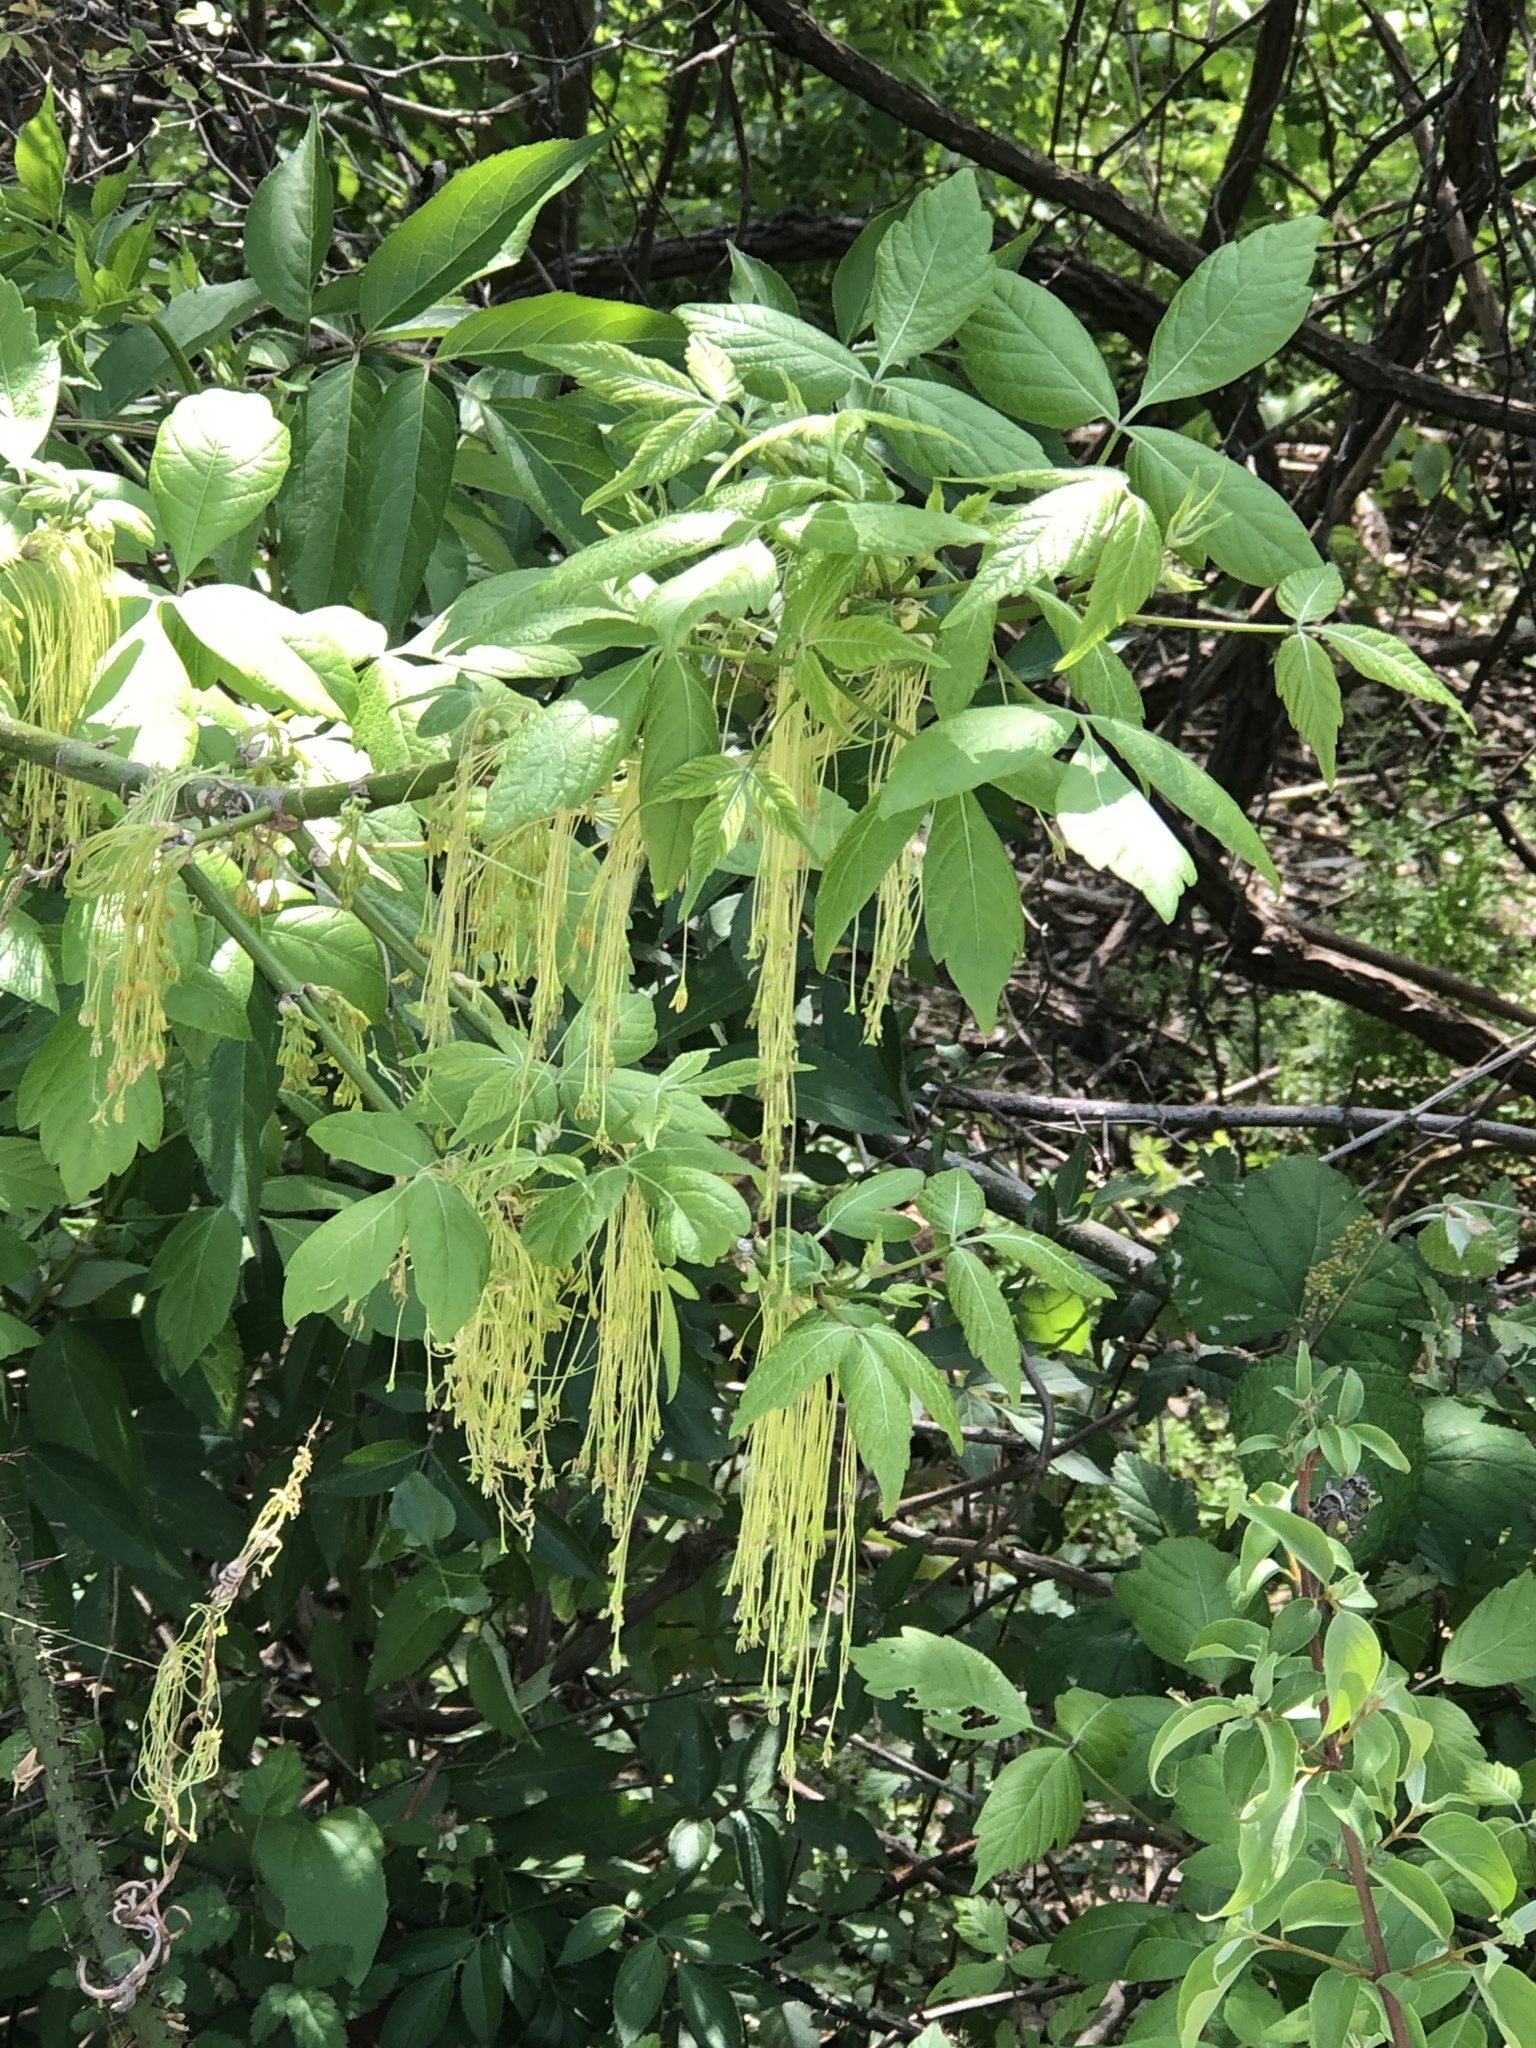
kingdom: Plantae
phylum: Tracheophyta
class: Magnoliopsida
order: Sapindales
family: Sapindaceae
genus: Acer
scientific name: Acer negundo
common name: Ashleaf maple
